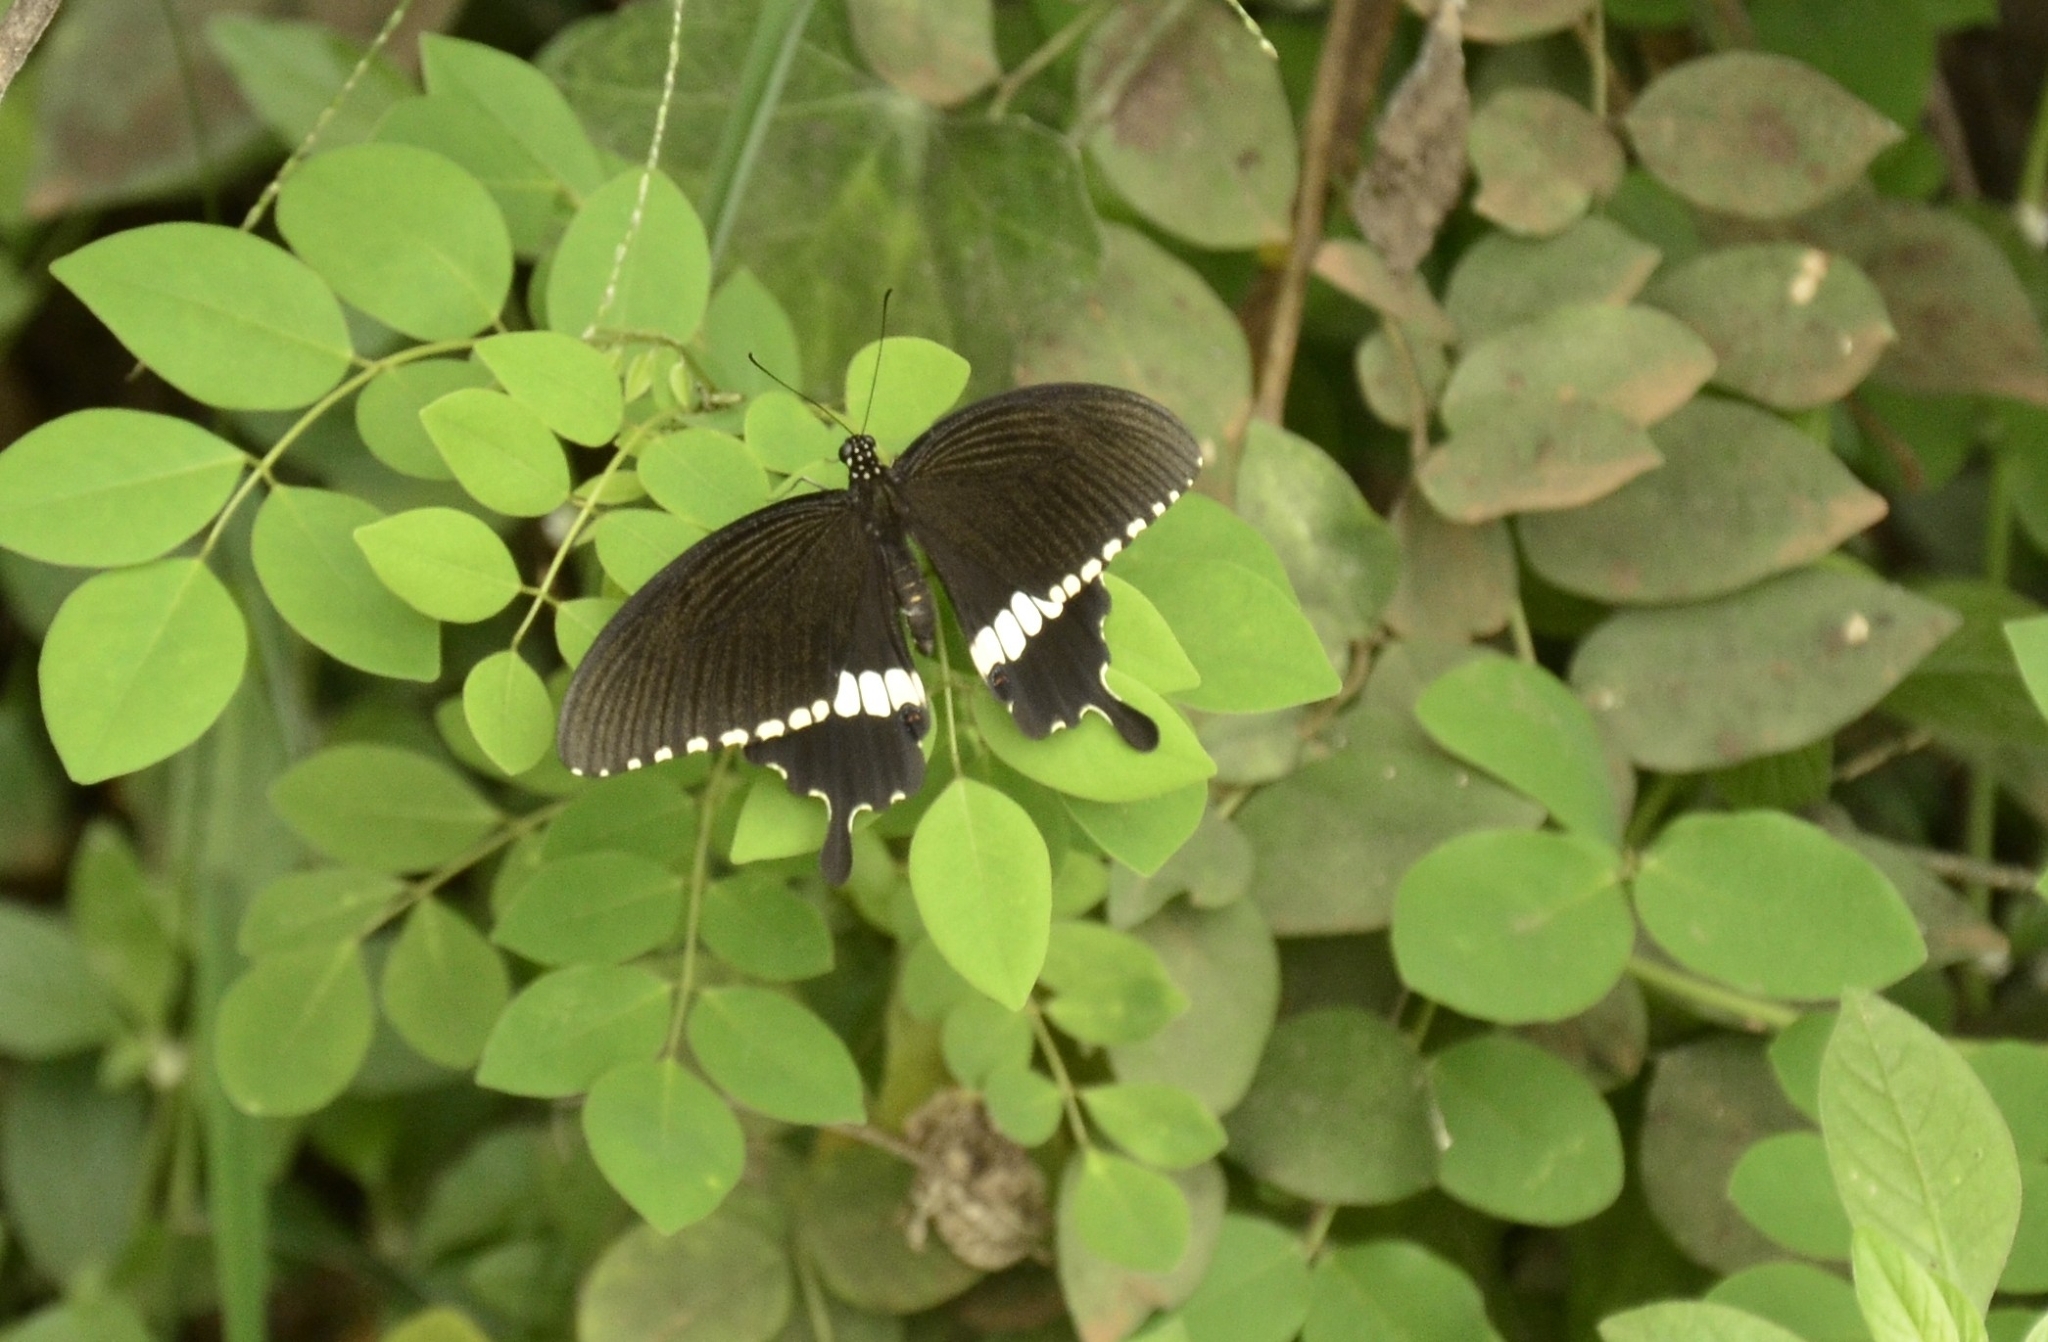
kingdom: Animalia
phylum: Arthropoda
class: Insecta
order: Lepidoptera
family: Papilionidae
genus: Papilio
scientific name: Papilio polytes
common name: Common mormon
